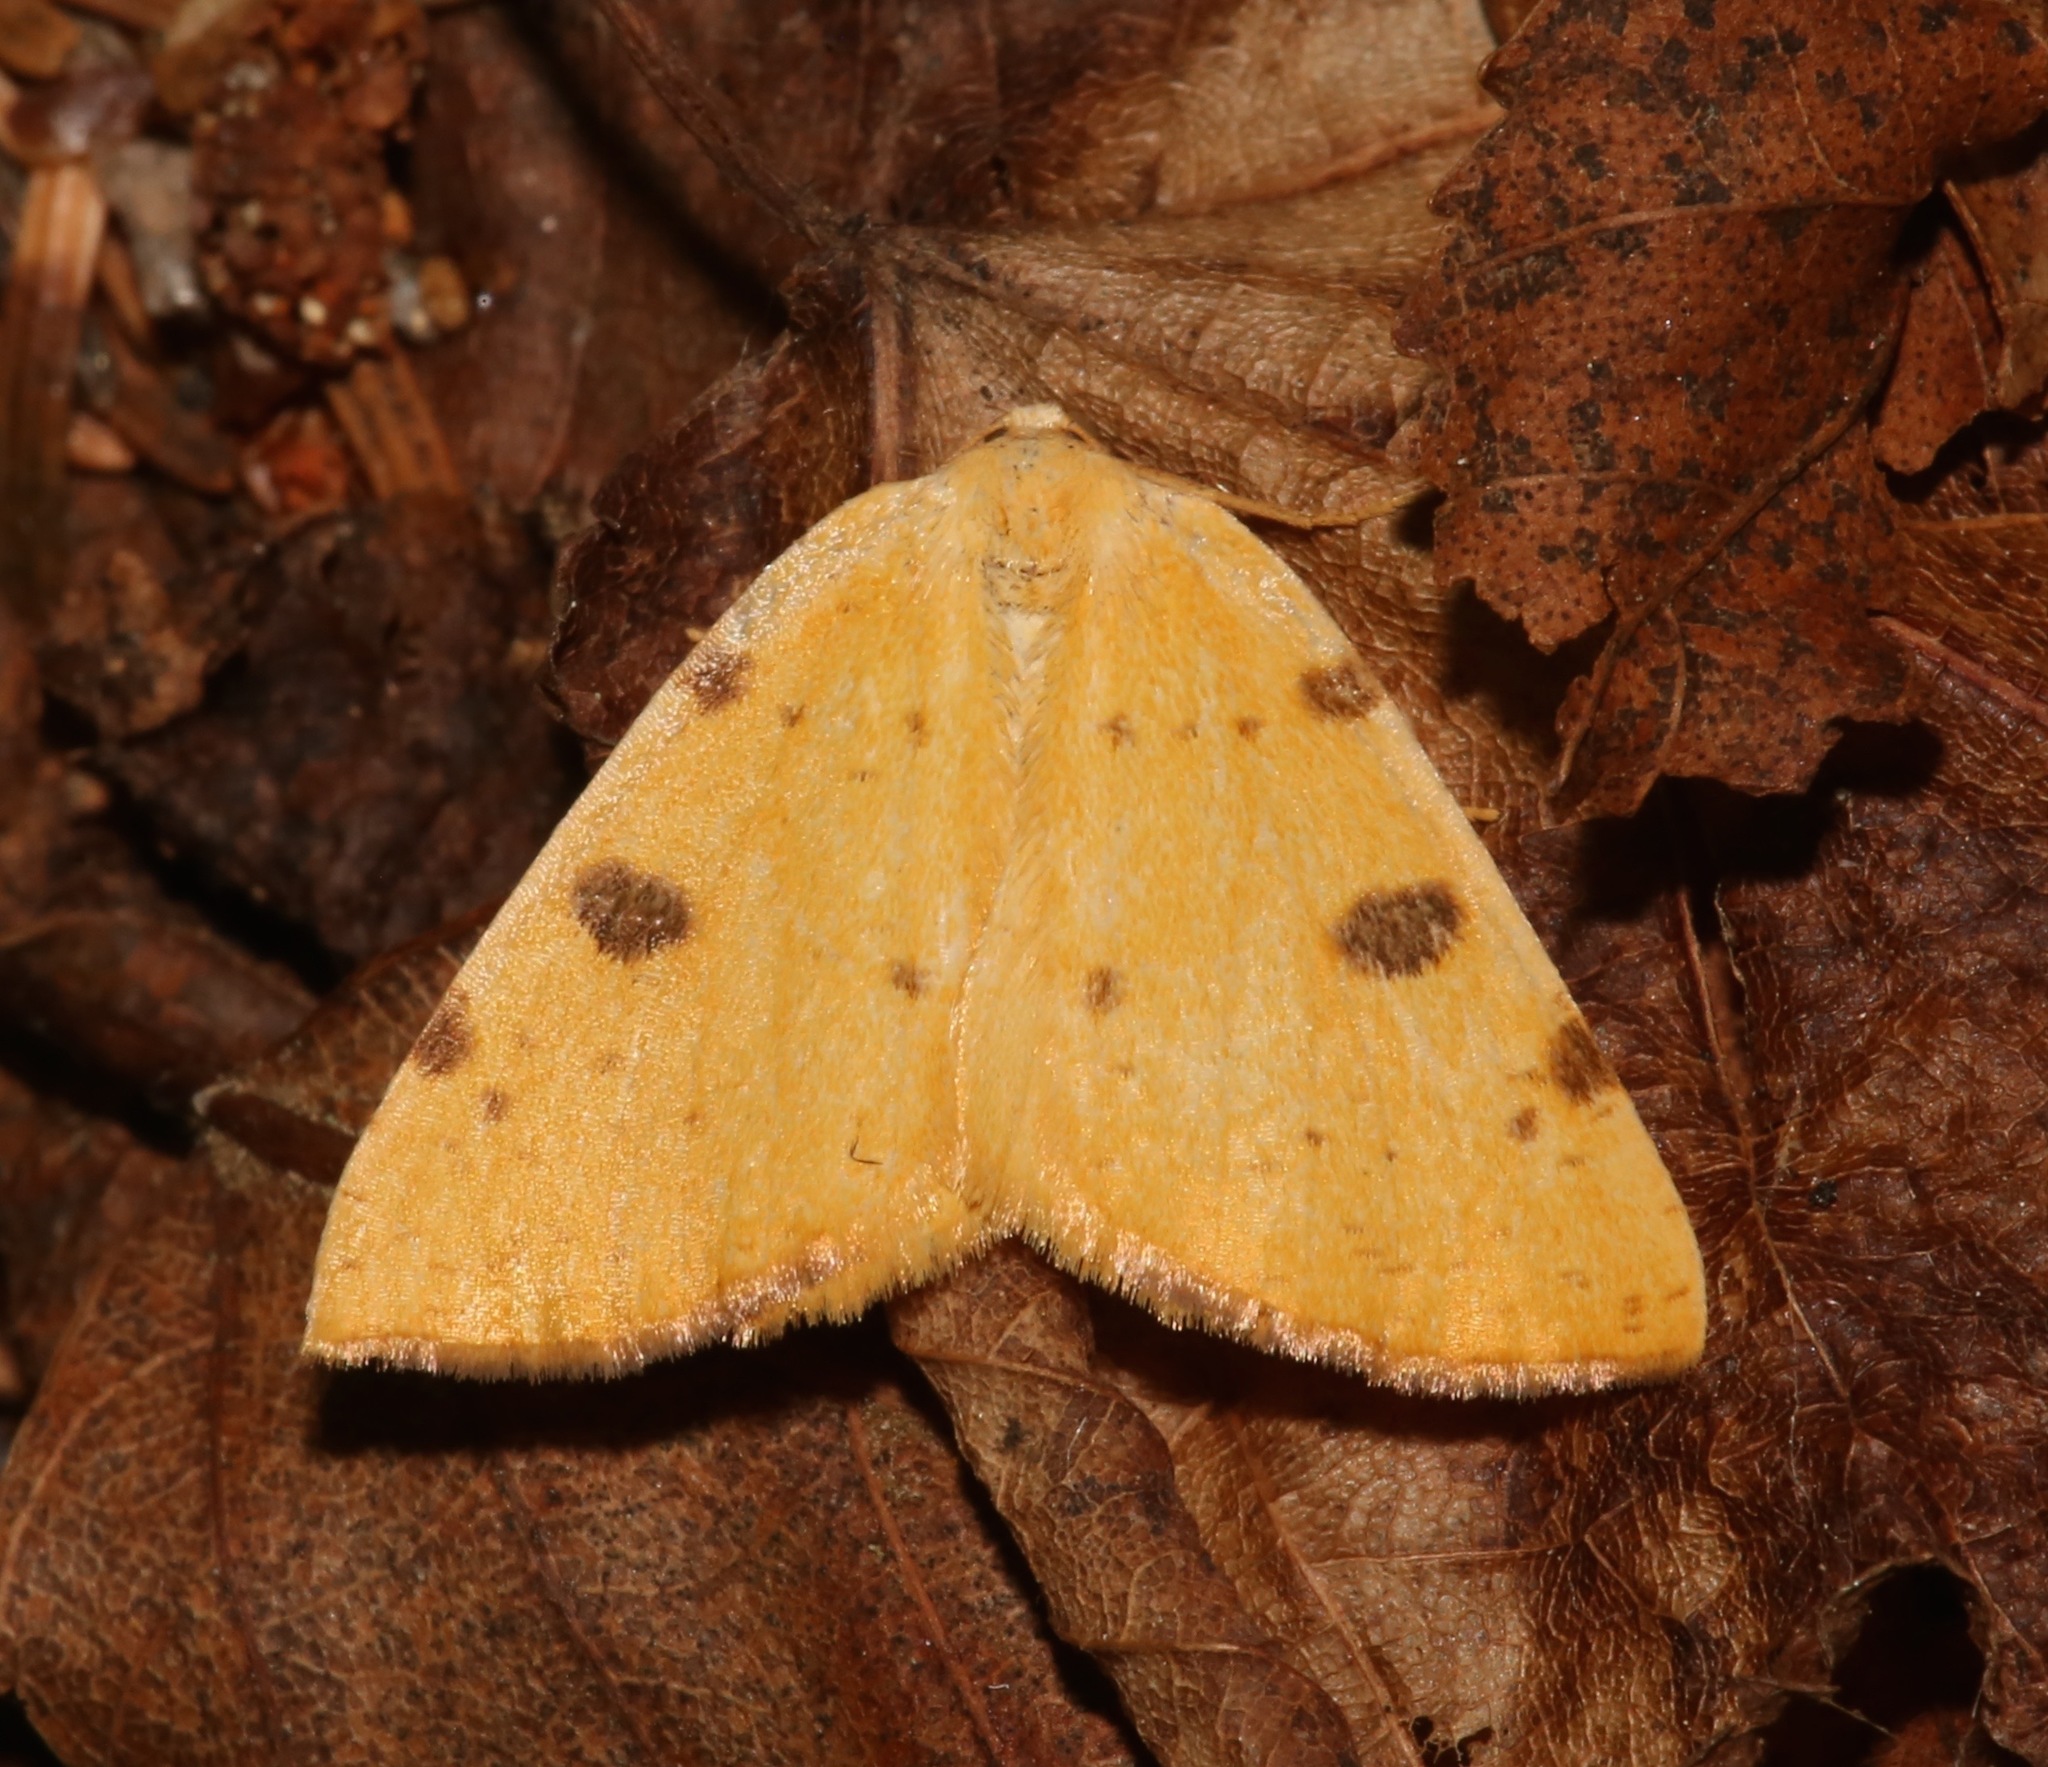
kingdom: Animalia
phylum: Arthropoda
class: Insecta
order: Lepidoptera
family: Geometridae
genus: Hesperumia
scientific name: Hesperumia sulphuraria
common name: Sulphur moth
